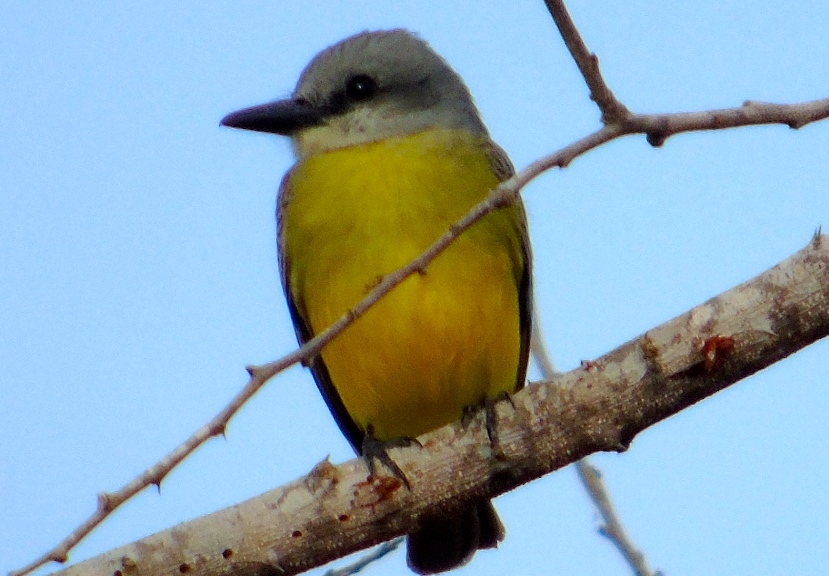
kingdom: Animalia
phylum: Chordata
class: Aves
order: Passeriformes
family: Tyrannidae
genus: Tyrannus
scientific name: Tyrannus melancholicus
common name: Tropical kingbird
